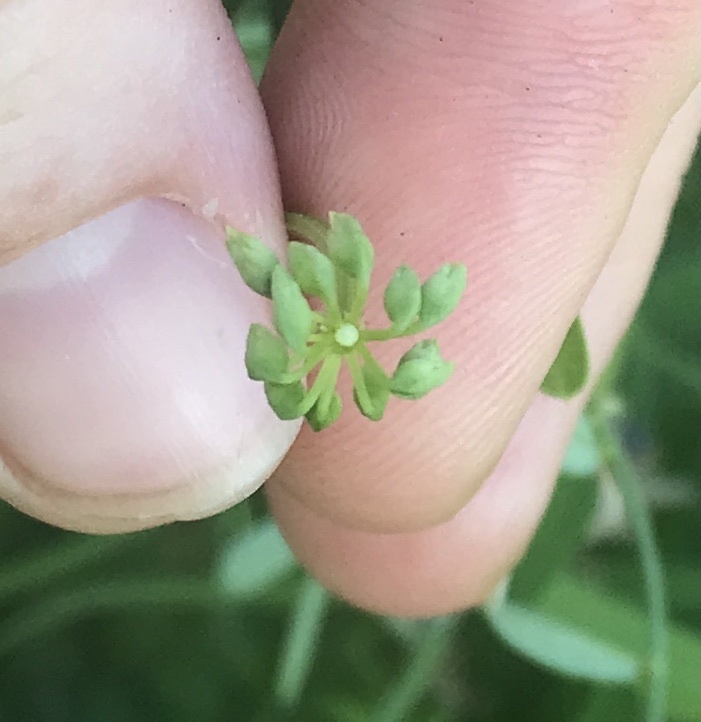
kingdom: Animalia
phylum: Arthropoda
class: Insecta
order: Lepidoptera
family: Hesperiidae
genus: Erynnis
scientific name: Erynnis baptisiae
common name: Wild indigo duskywing
